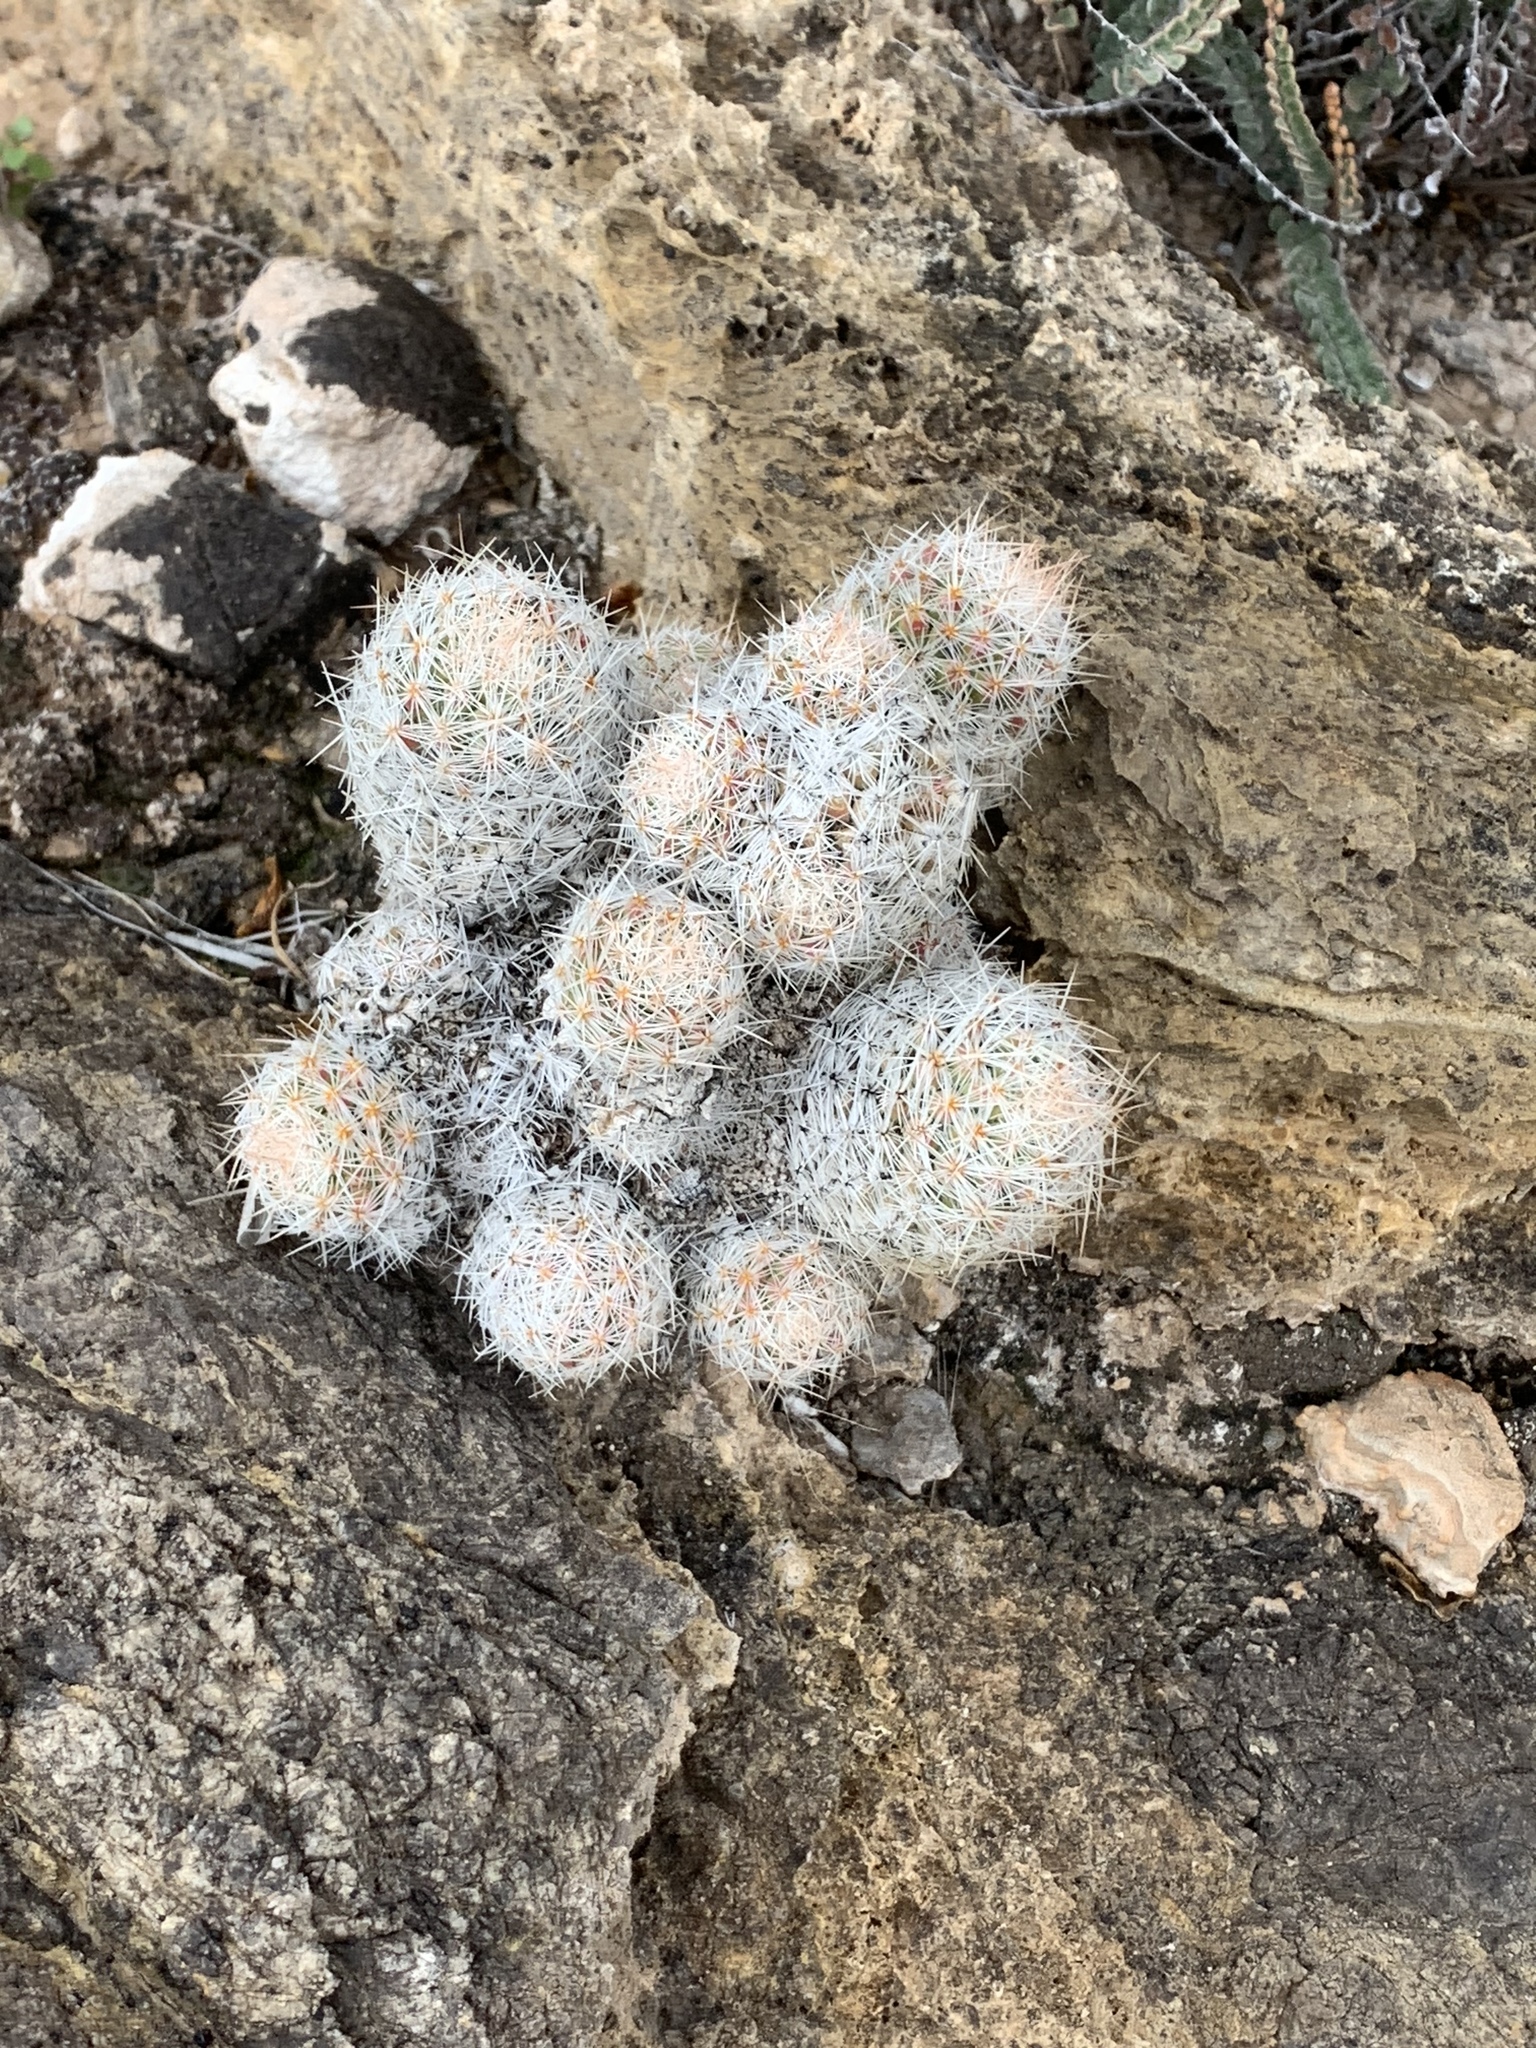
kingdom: Plantae
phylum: Tracheophyta
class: Magnoliopsida
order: Caryophyllales
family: Cactaceae
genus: Pelecyphora
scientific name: Pelecyphora tuberculosa
